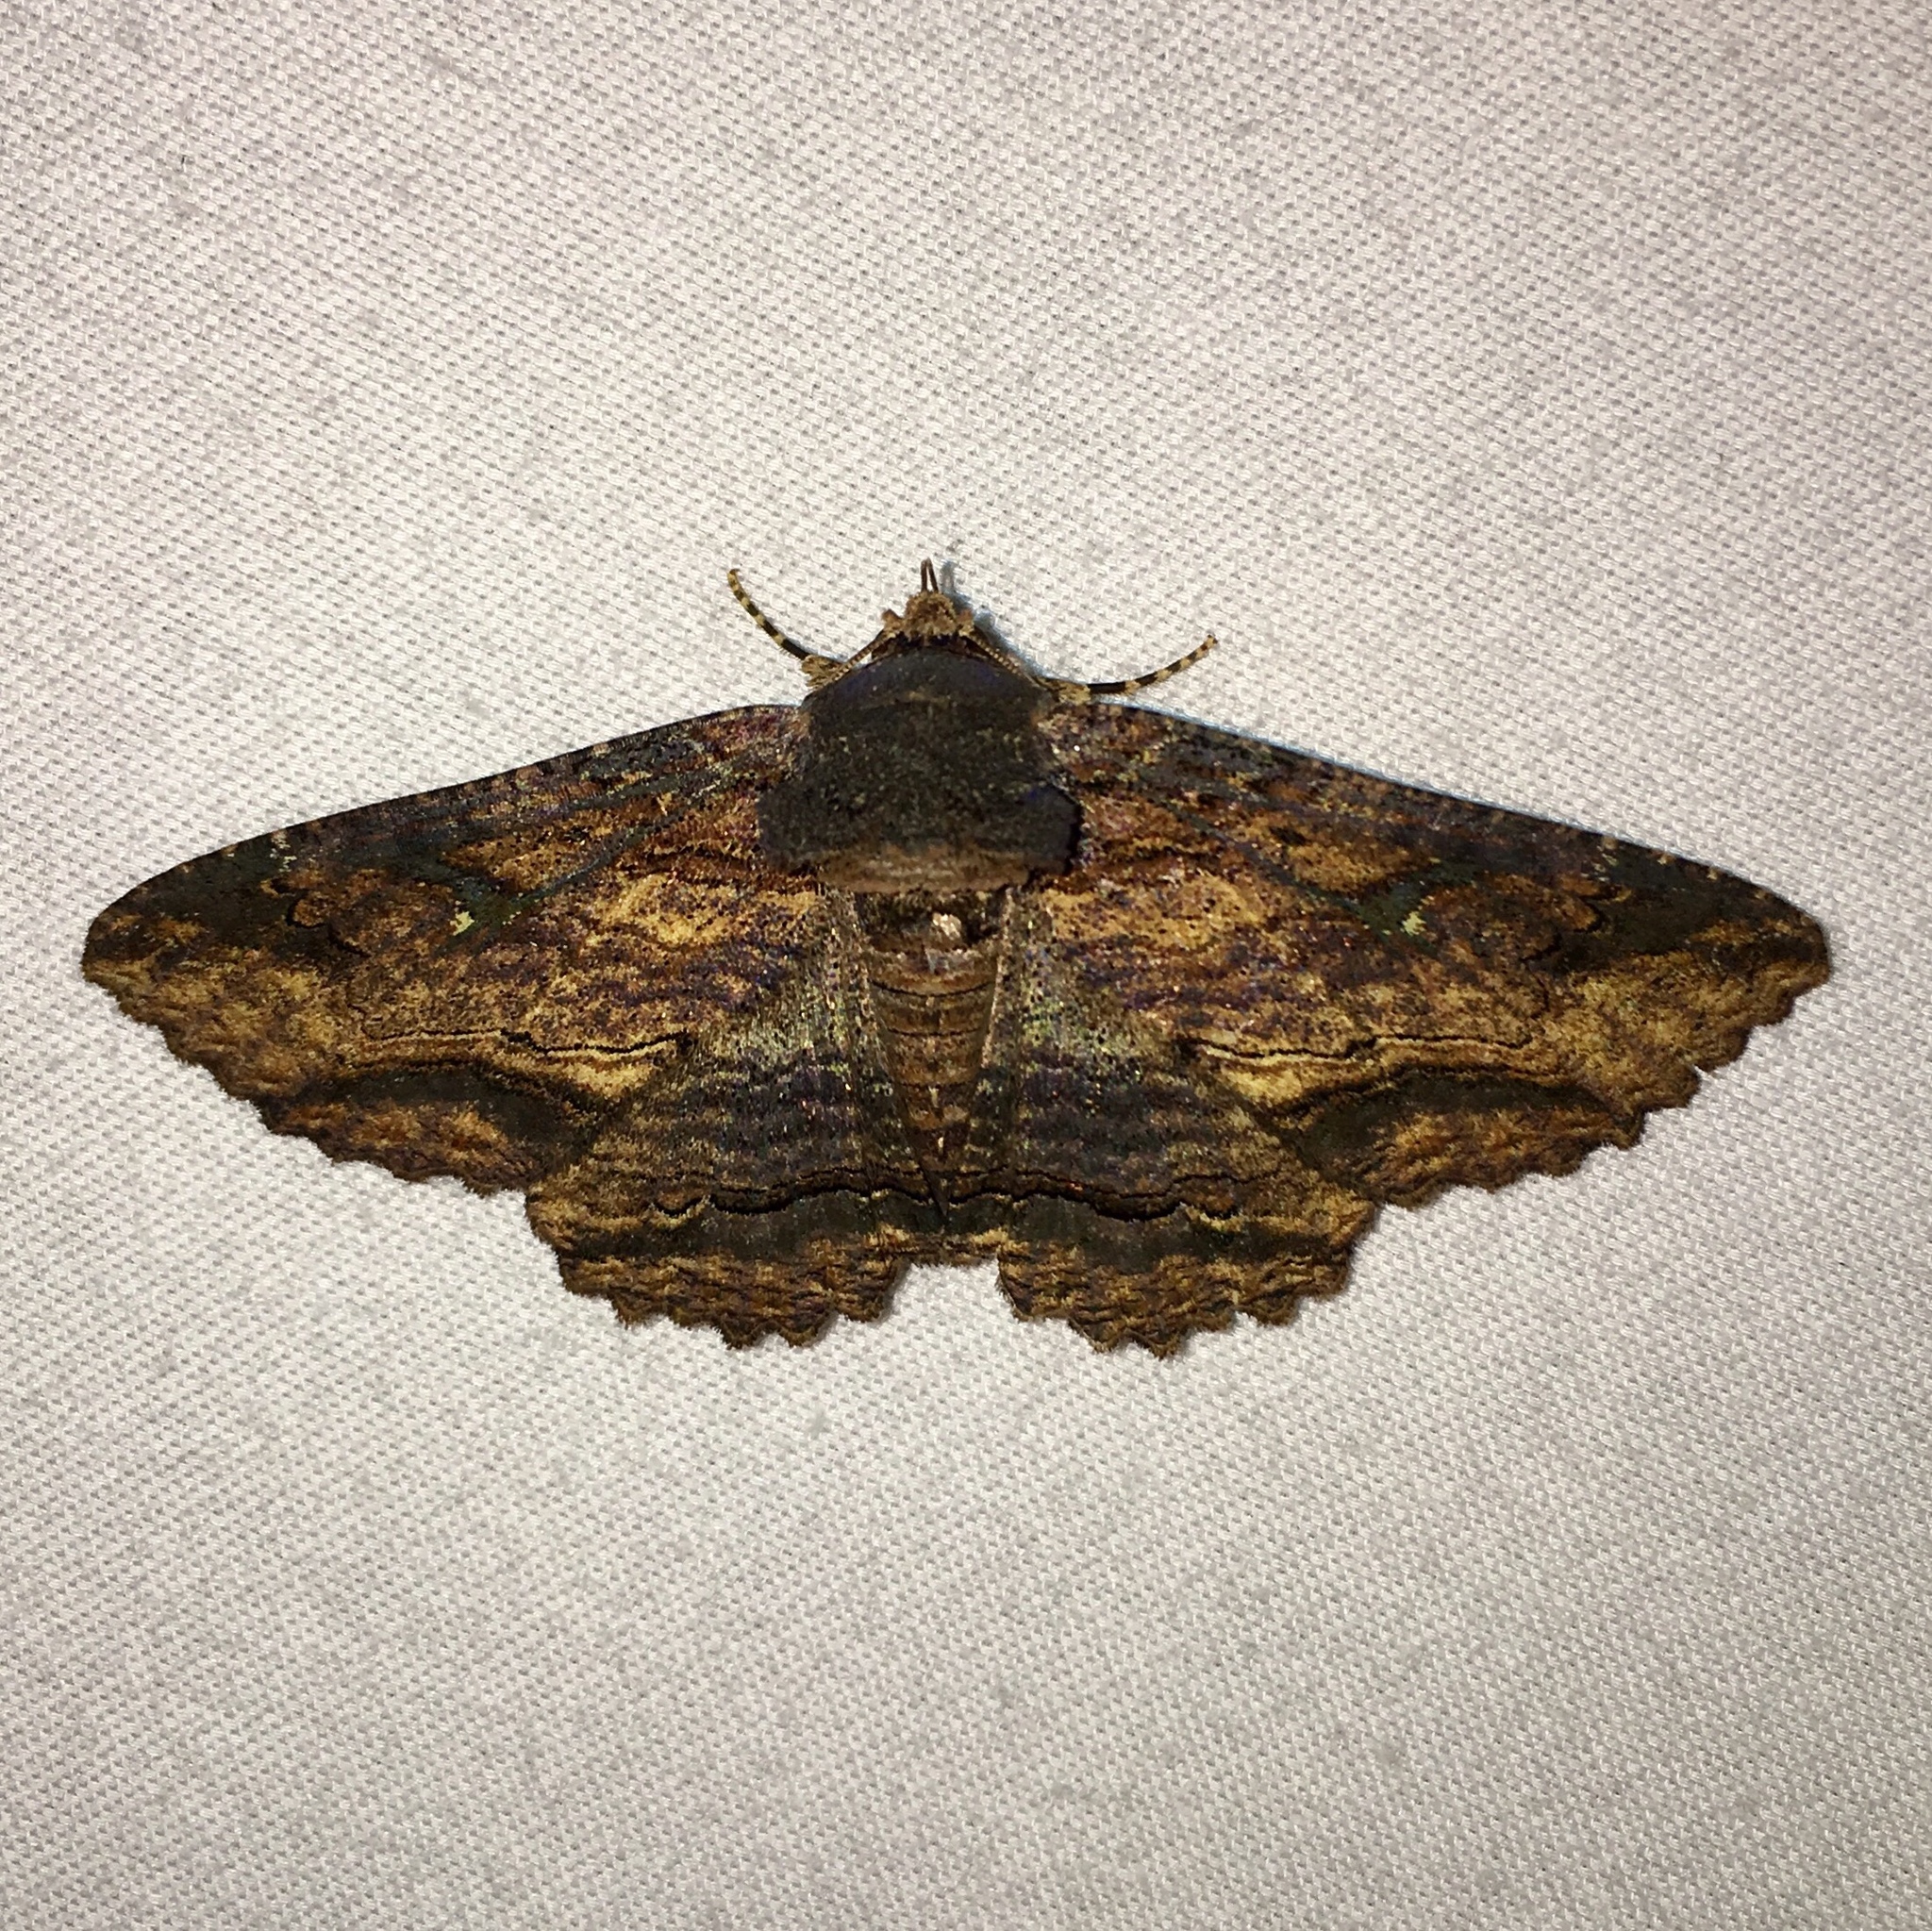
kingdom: Animalia
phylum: Arthropoda
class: Insecta
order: Lepidoptera
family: Erebidae
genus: Zale
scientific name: Zale lunata
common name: Lunate zale moth
